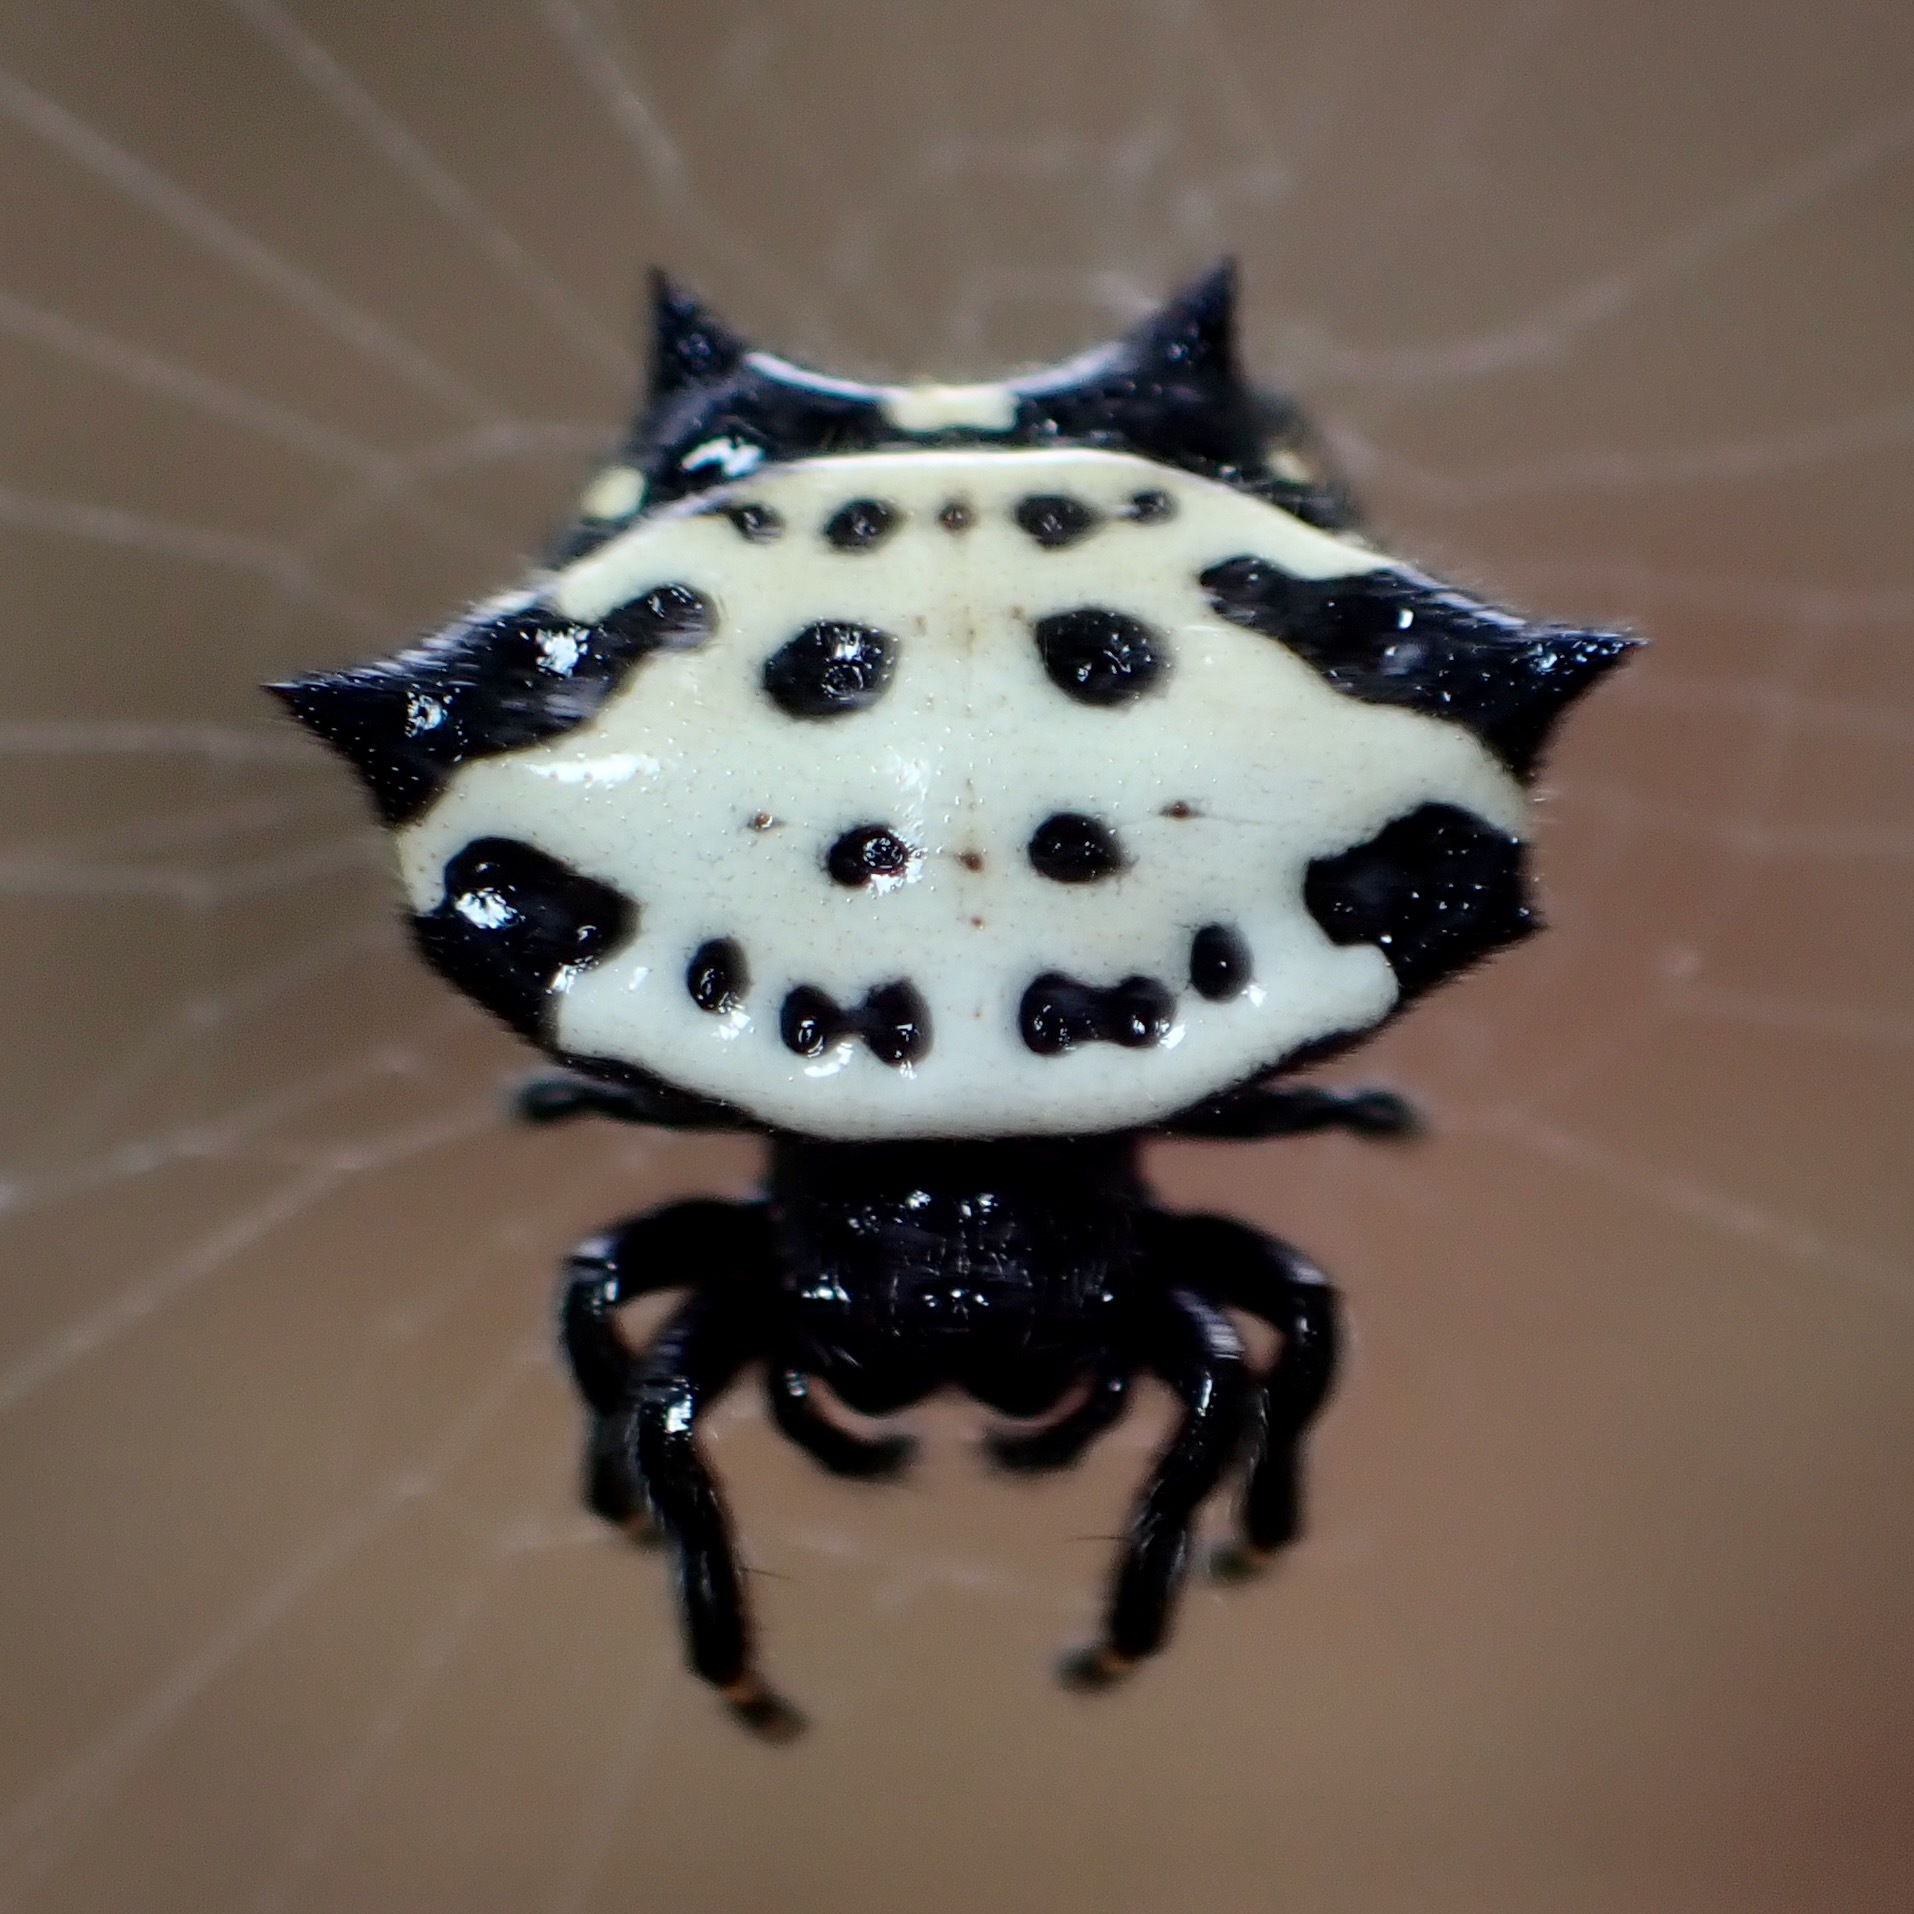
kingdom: Animalia
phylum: Arthropoda
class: Arachnida
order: Araneae
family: Araneidae
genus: Gasteracantha
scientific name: Gasteracantha cancriformis
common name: Orb weavers
